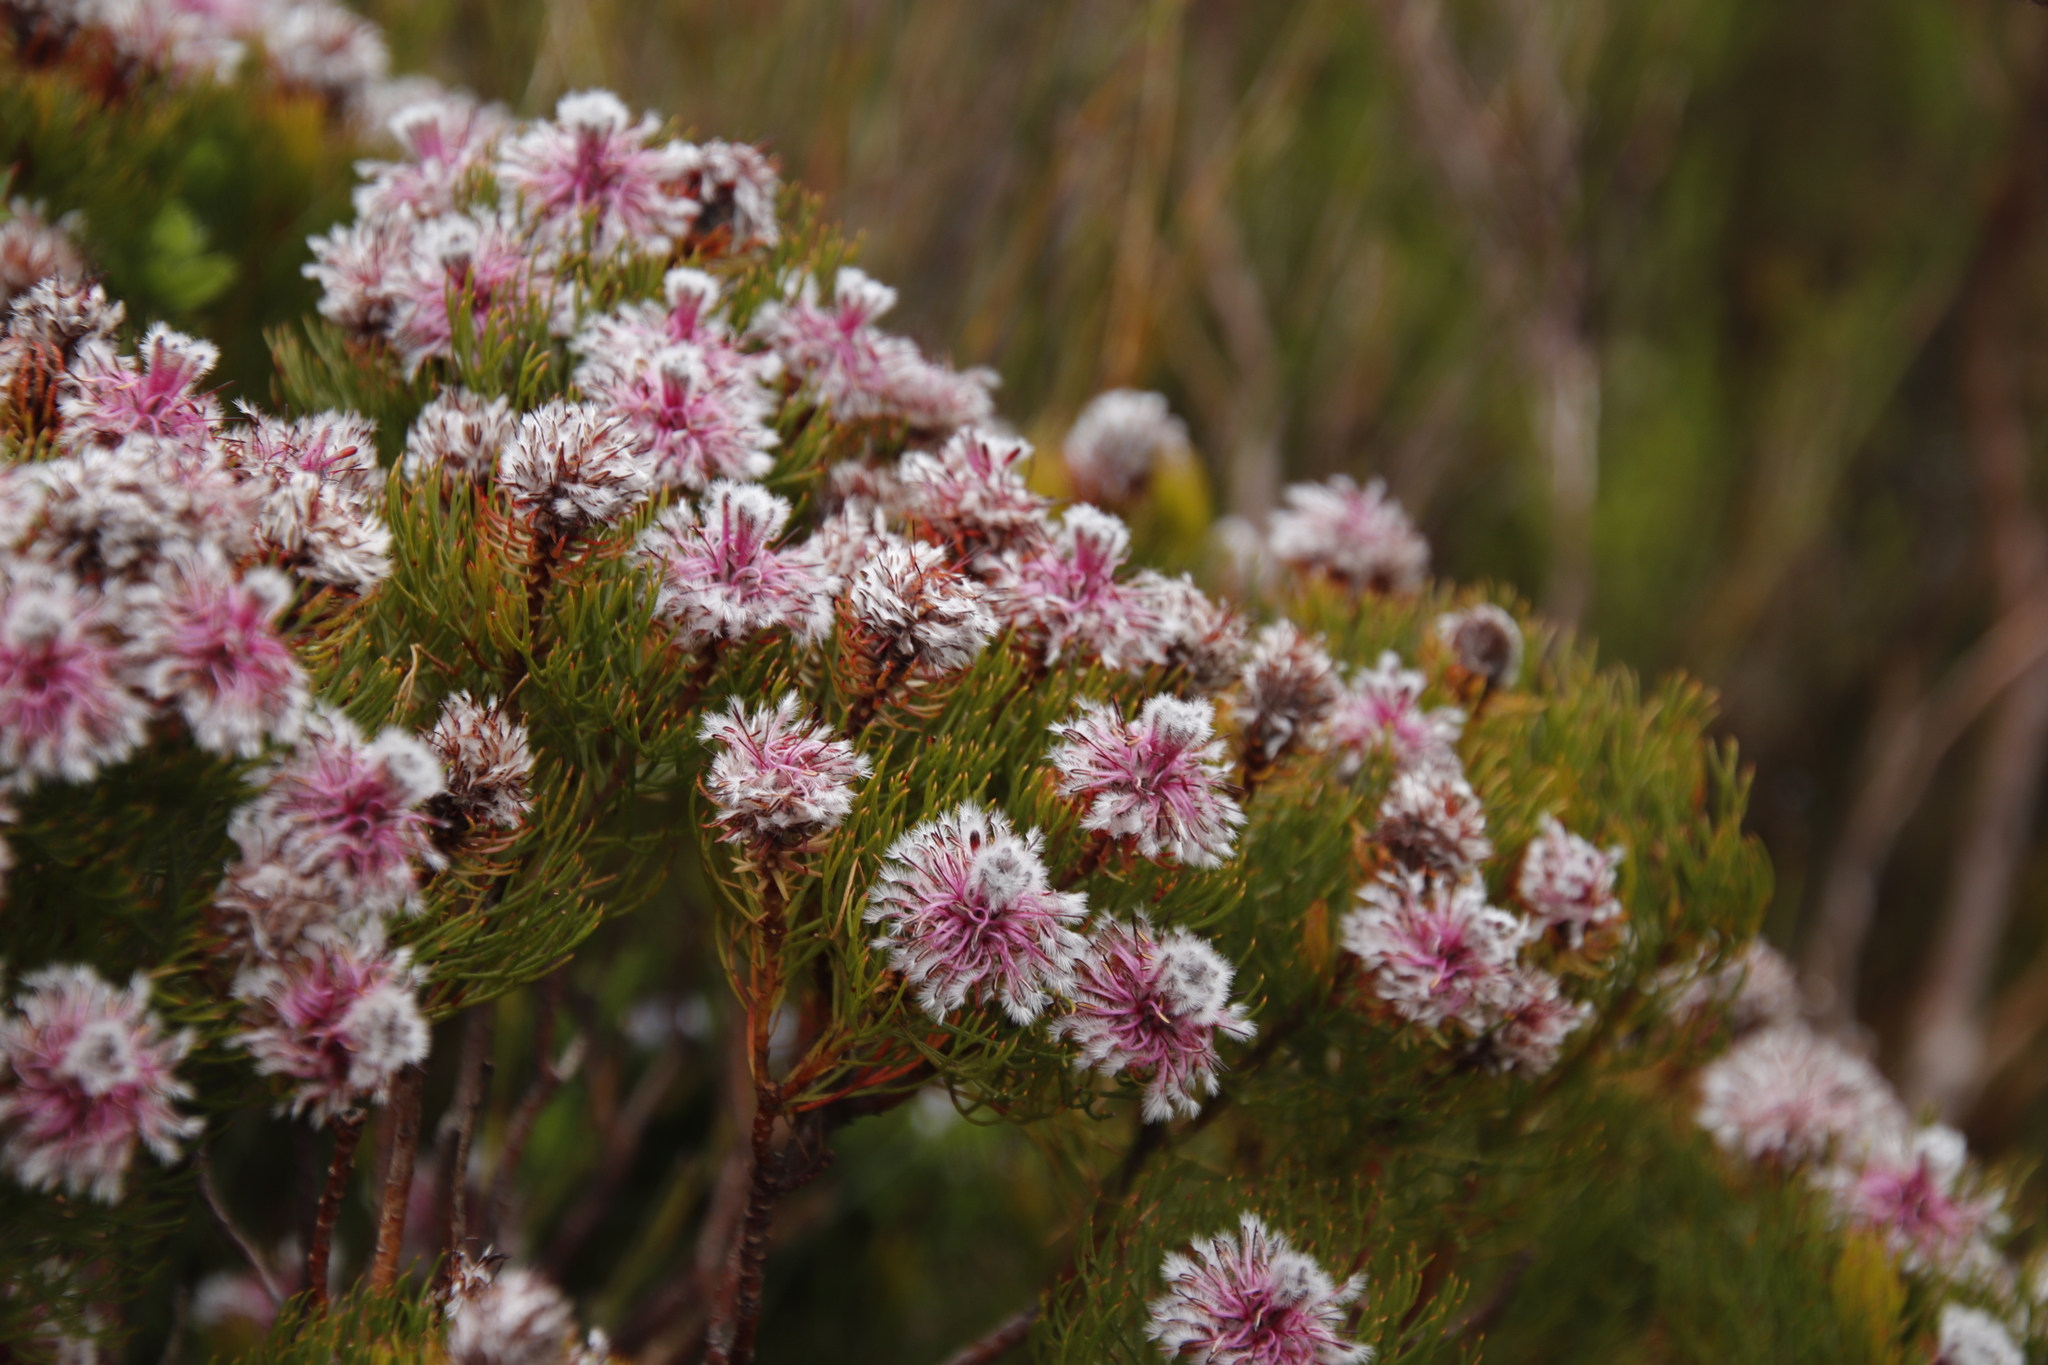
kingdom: Plantae
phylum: Tracheophyta
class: Magnoliopsida
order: Proteales
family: Proteaceae
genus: Serruria
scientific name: Serruria phylicoides
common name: Bearded spiderhead
